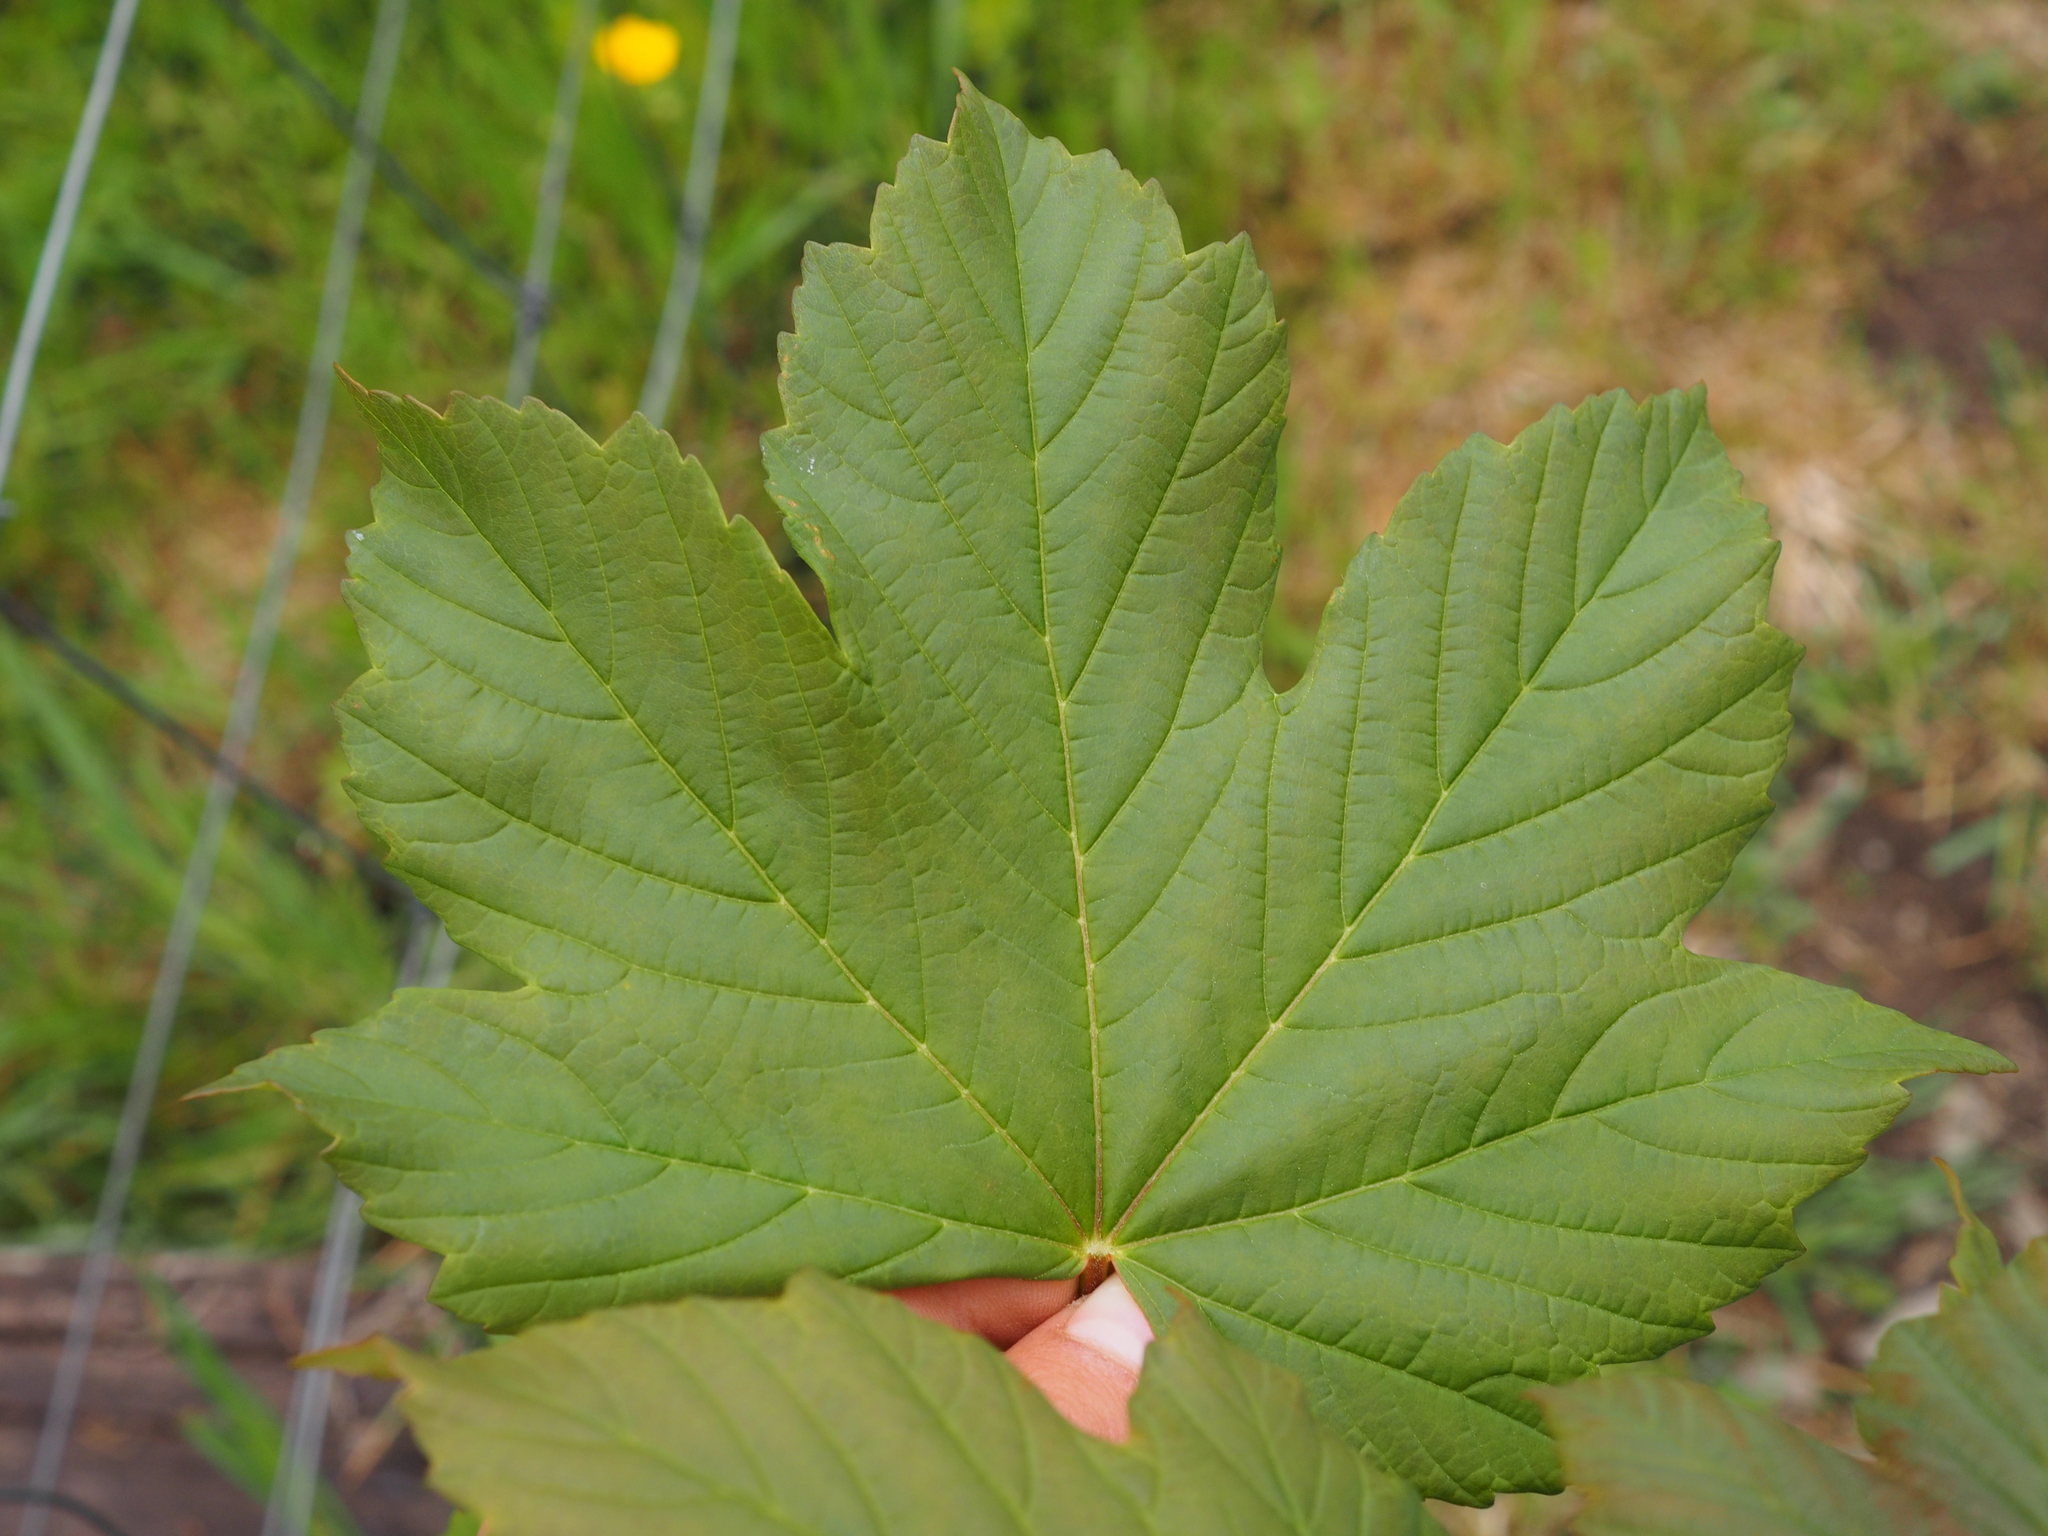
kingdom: Plantae
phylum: Tracheophyta
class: Magnoliopsida
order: Sapindales
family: Sapindaceae
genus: Acer
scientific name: Acer pseudoplatanus
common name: Sycamore
